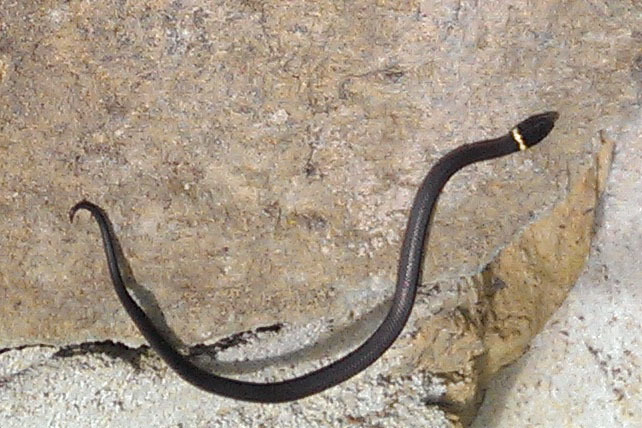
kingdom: Animalia
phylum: Chordata
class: Squamata
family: Colubridae
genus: Diadophis
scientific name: Diadophis punctatus
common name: Ringneck snake
